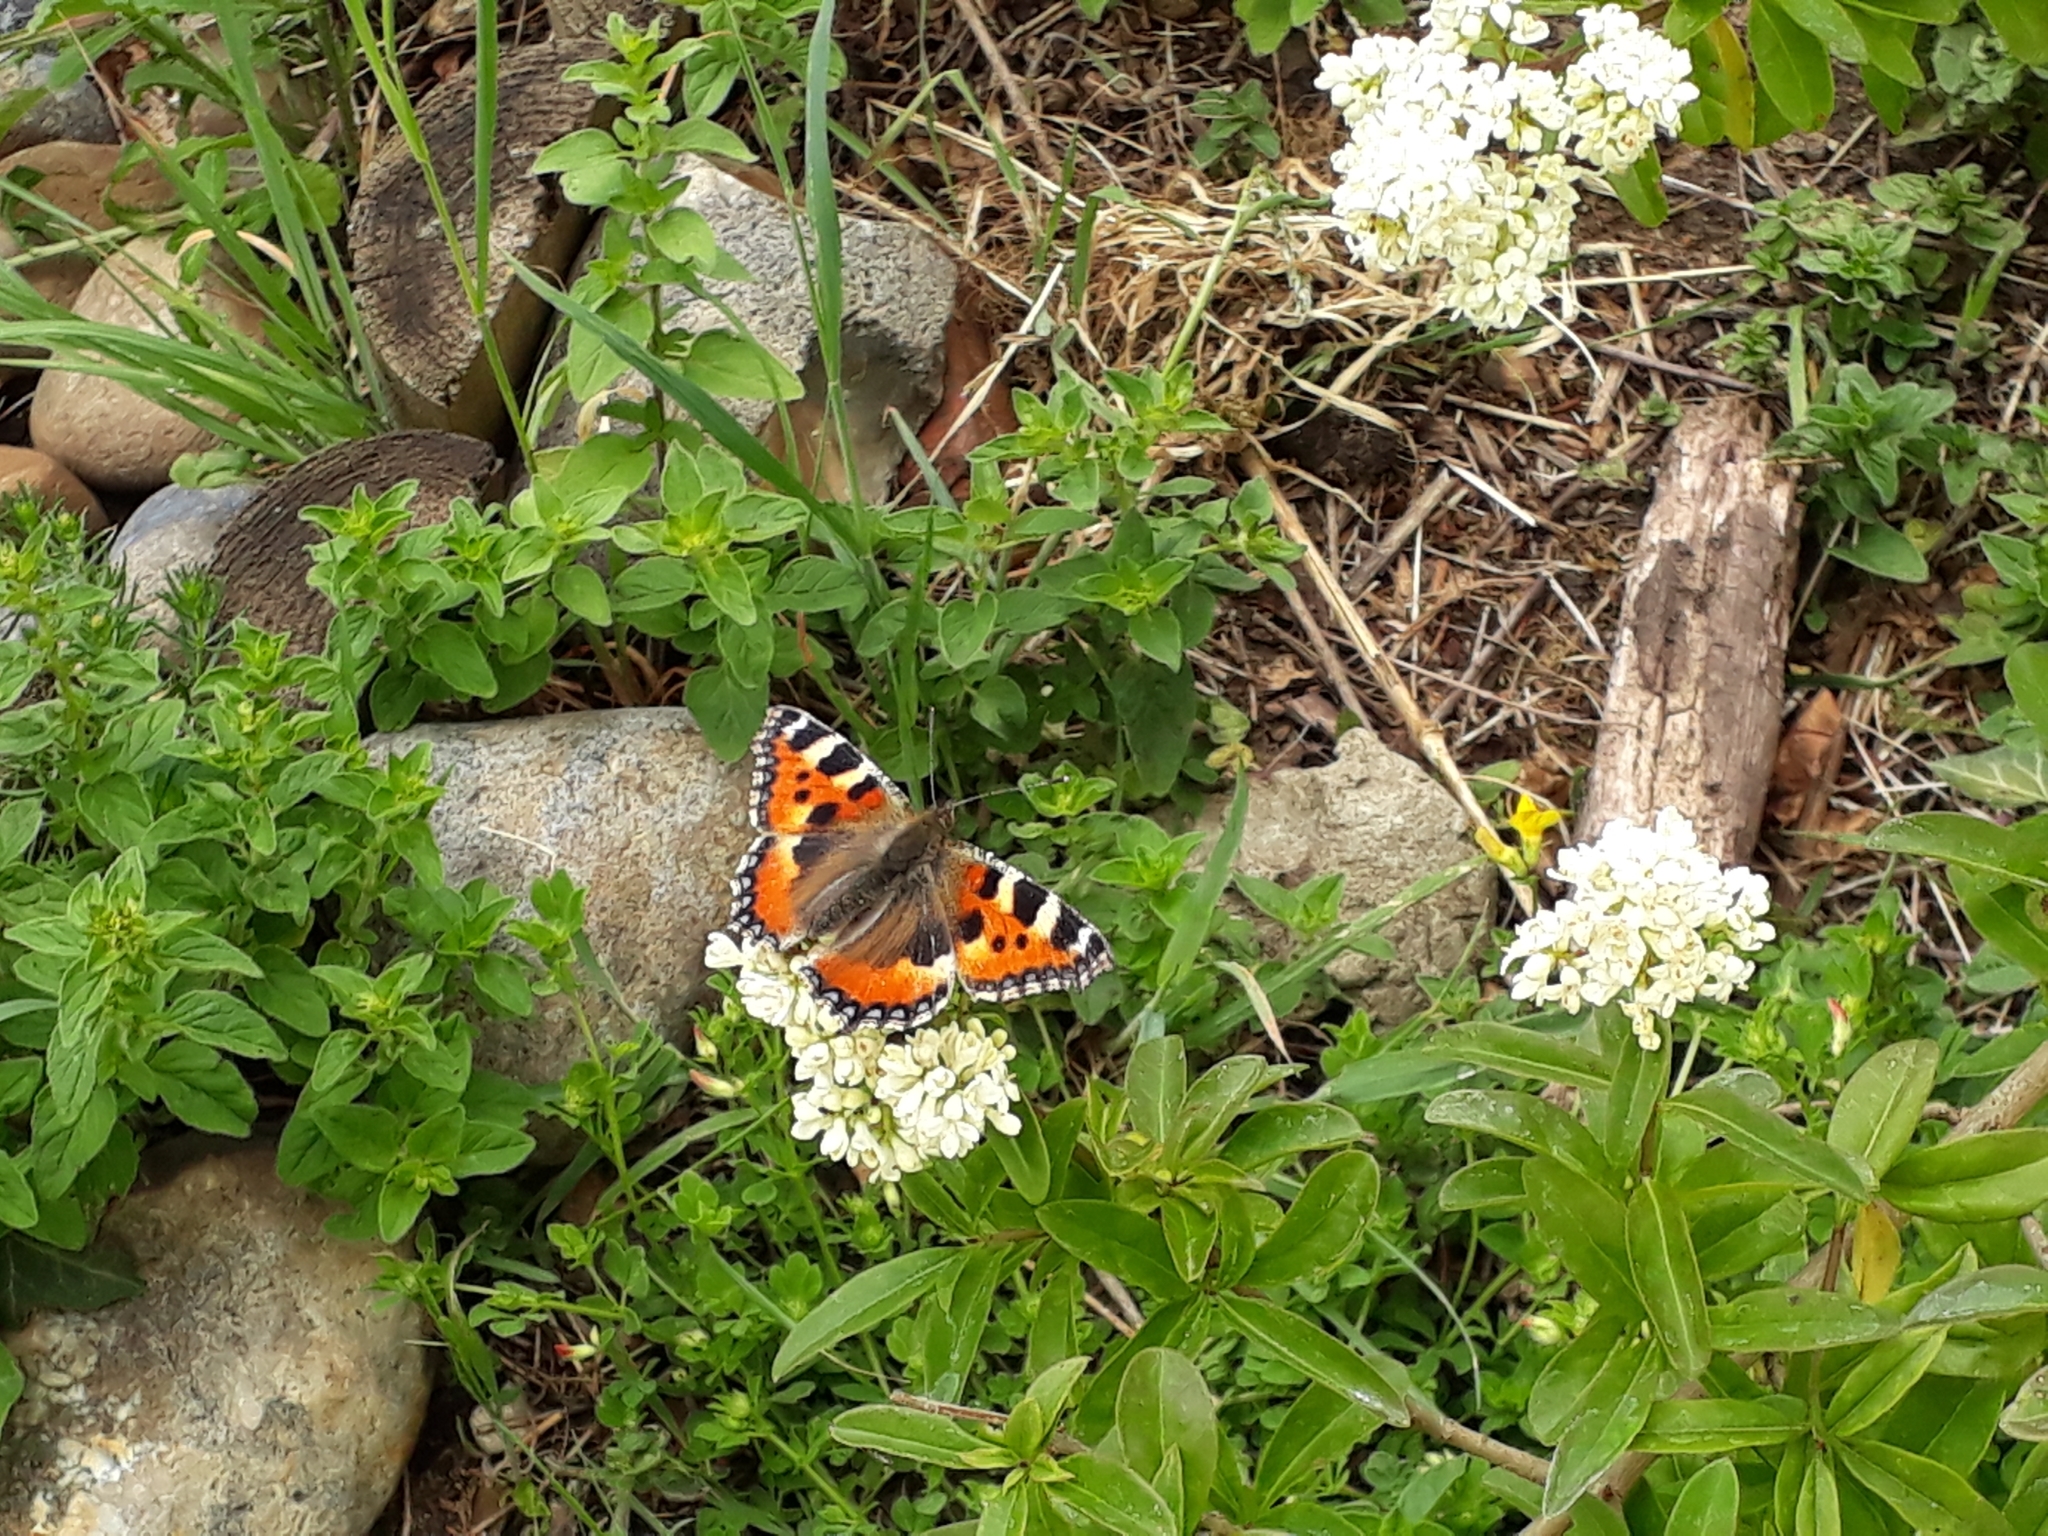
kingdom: Animalia
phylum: Arthropoda
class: Insecta
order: Lepidoptera
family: Nymphalidae
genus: Aglais
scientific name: Aglais urticae
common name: Small tortoiseshell
